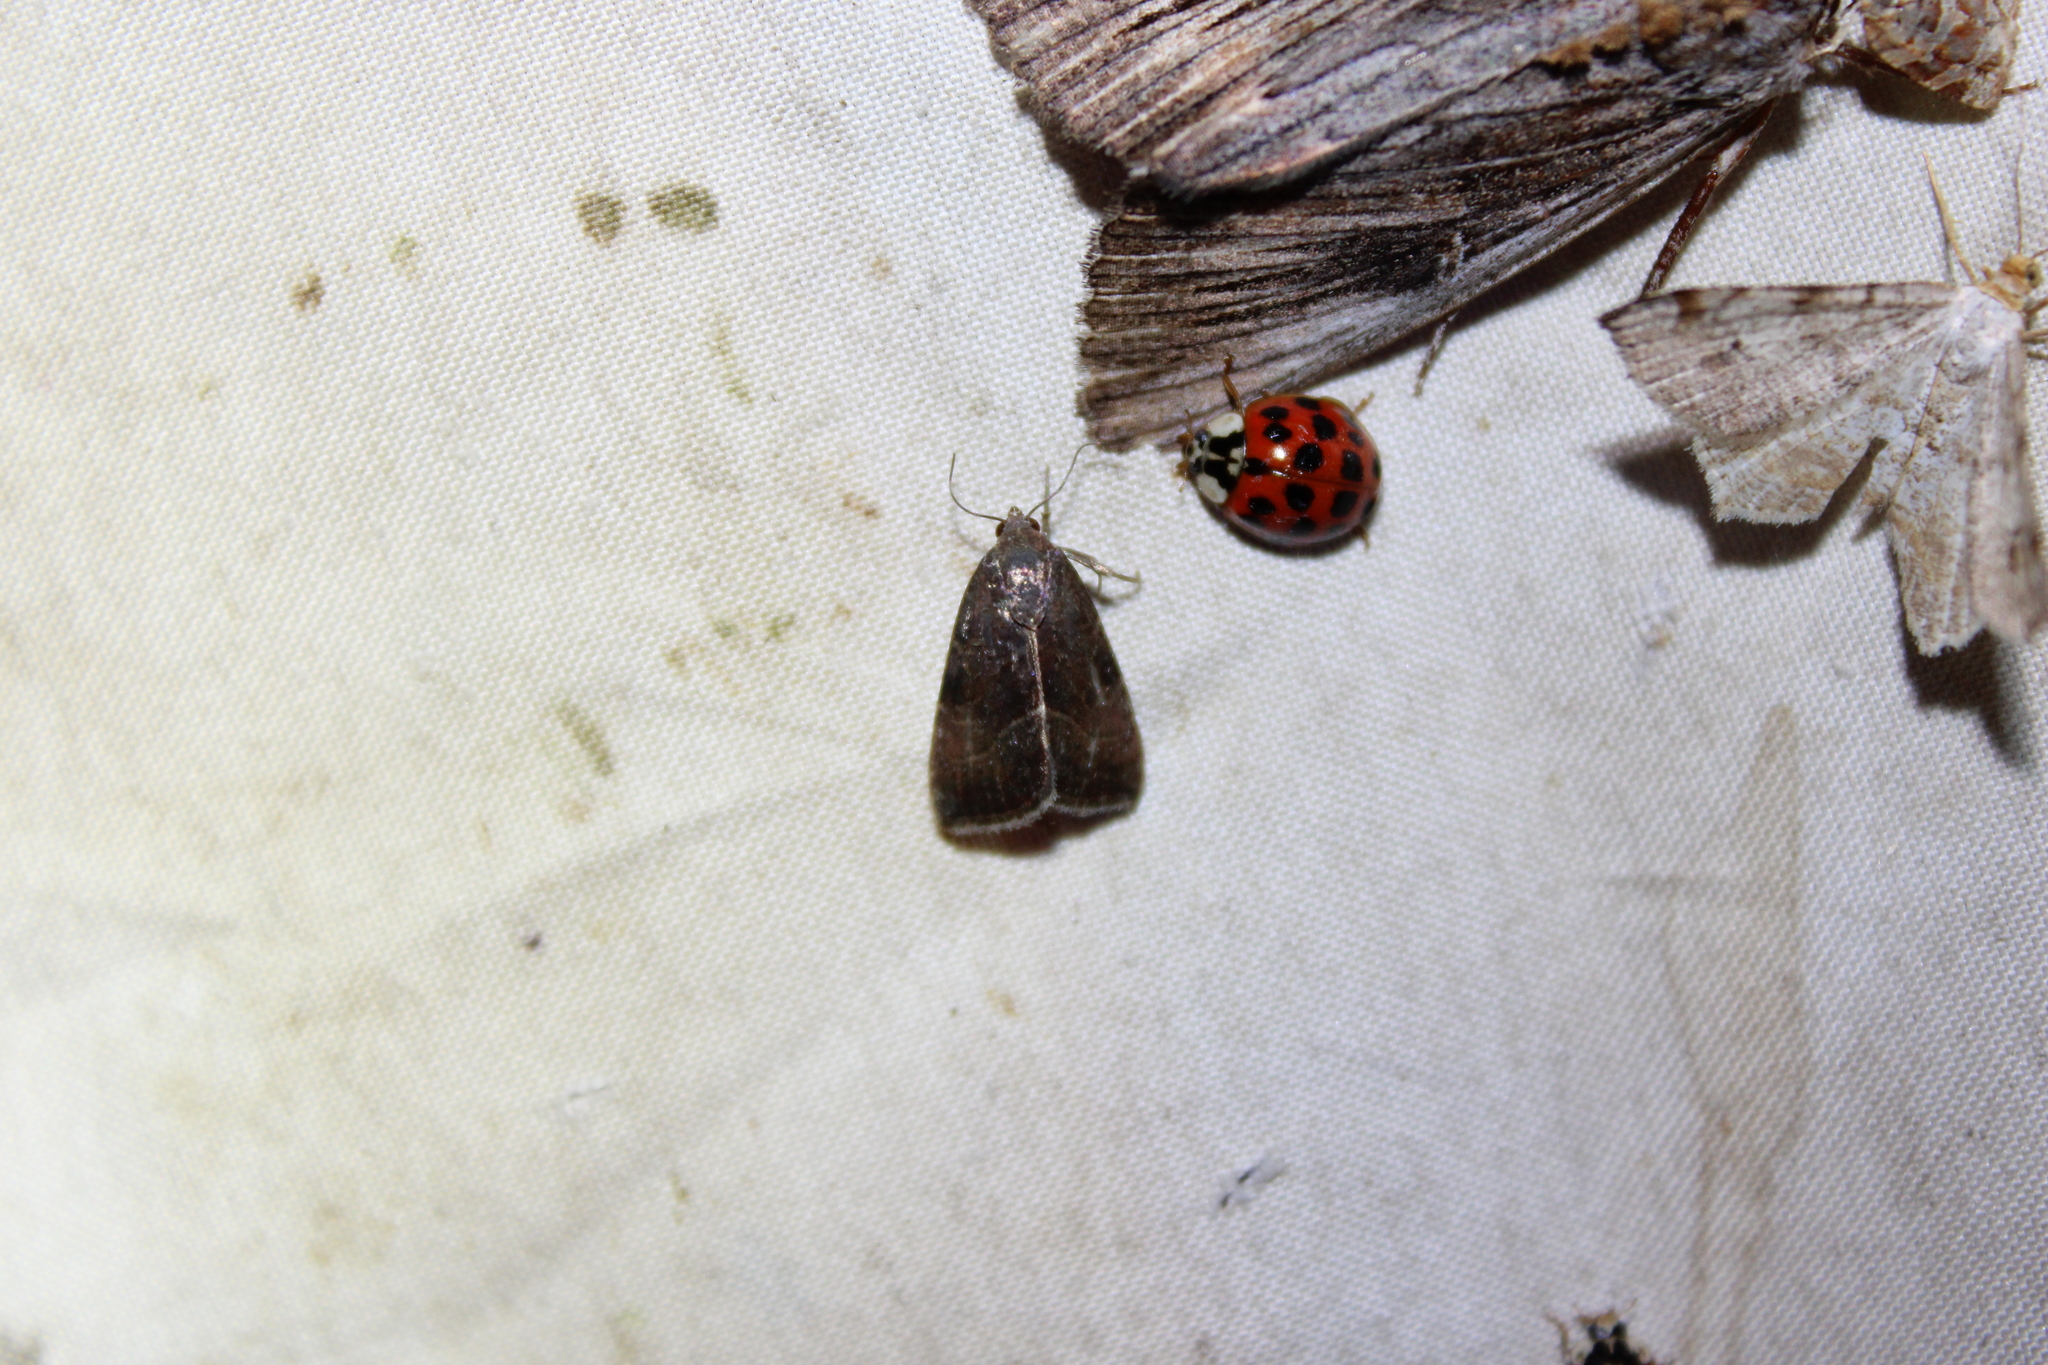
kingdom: Animalia
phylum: Arthropoda
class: Insecta
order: Lepidoptera
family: Noctuidae
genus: Galgula
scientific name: Galgula partita
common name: Wedgeling
